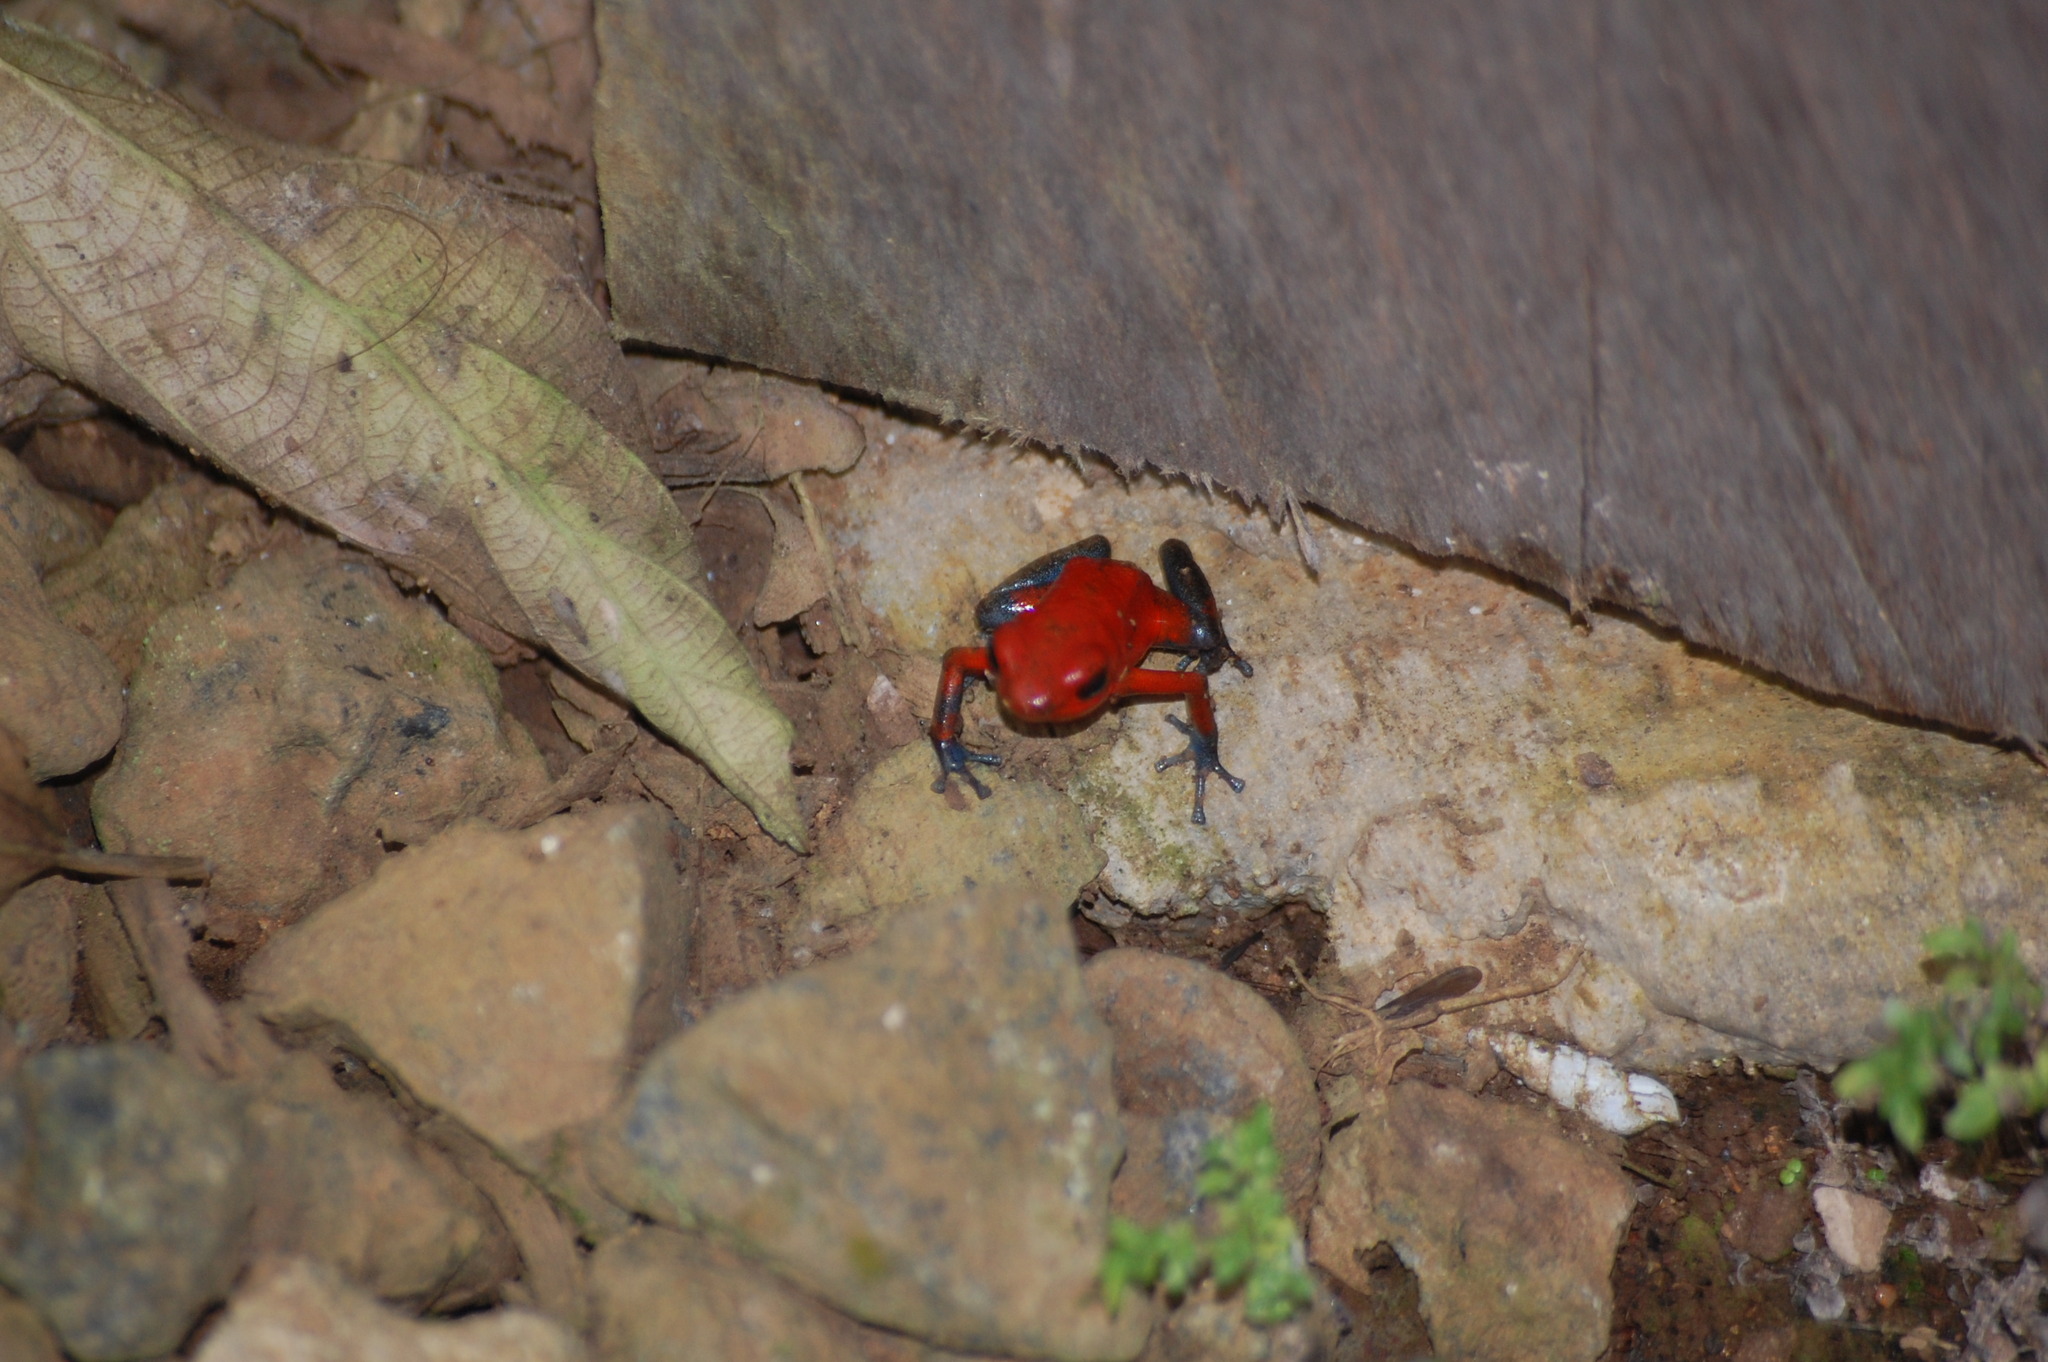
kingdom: Animalia
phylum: Chordata
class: Amphibia
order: Anura
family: Dendrobatidae
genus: Oophaga
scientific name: Oophaga pumilio
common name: Flaming poison frog
